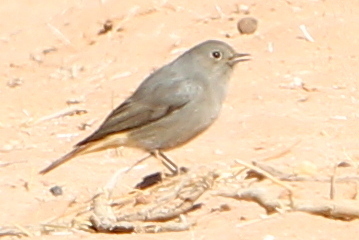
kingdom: Animalia
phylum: Chordata
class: Aves
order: Passeriformes
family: Muscicapidae
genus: Phoenicurus
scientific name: Phoenicurus ochruros
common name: Black redstart
